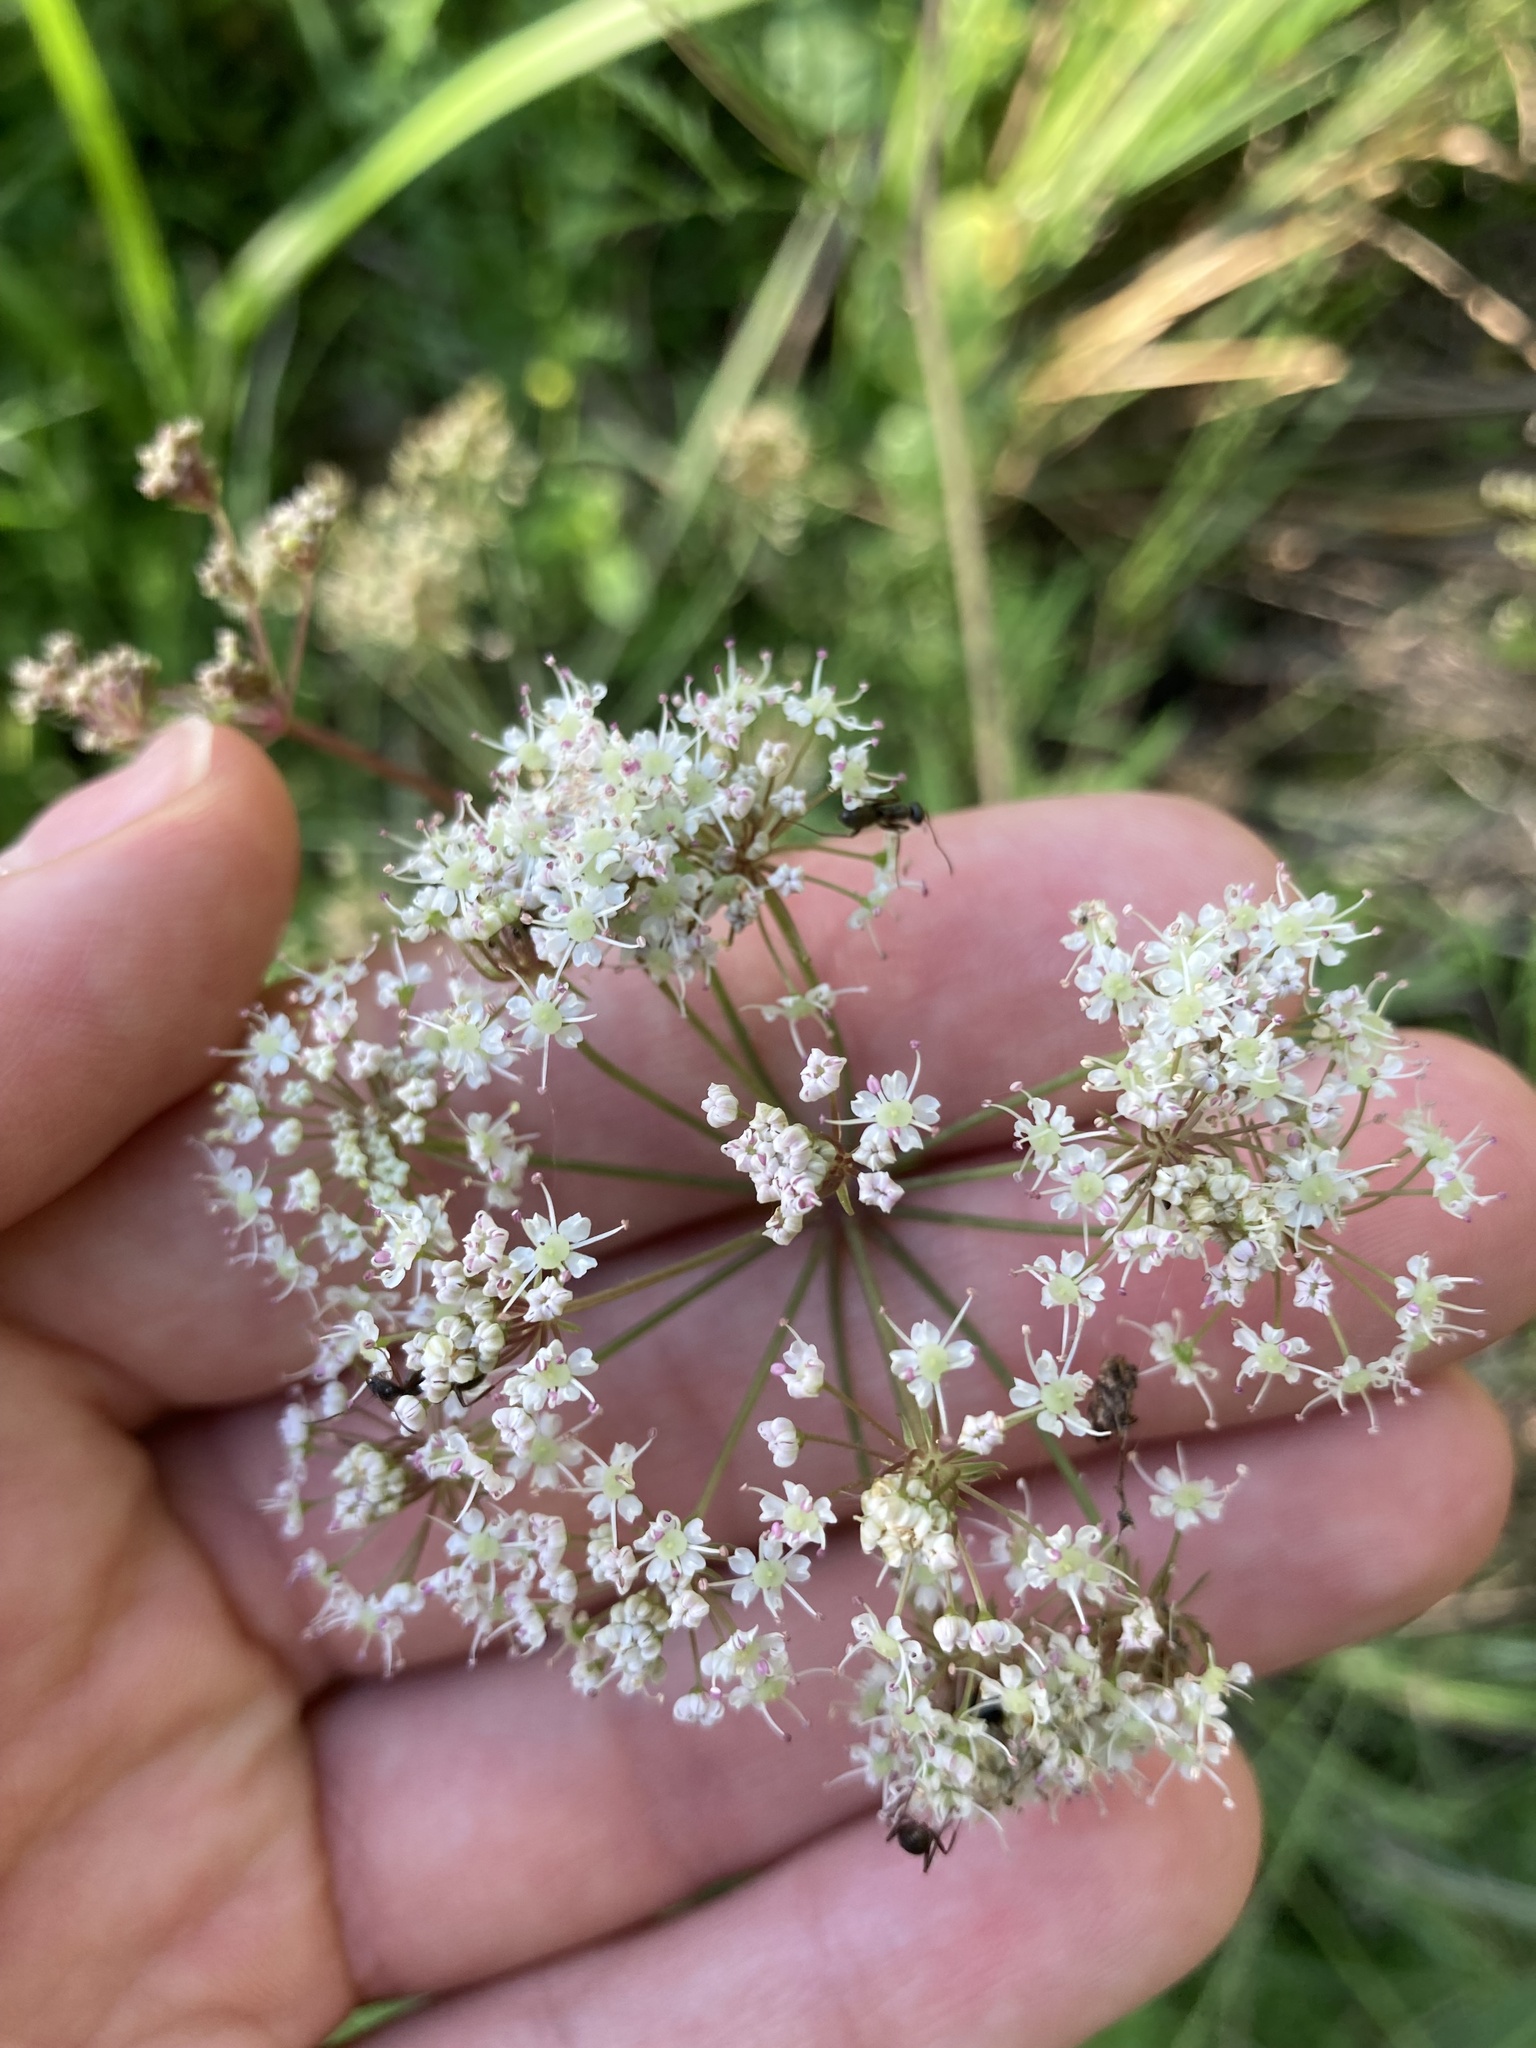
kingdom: Plantae
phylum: Tracheophyta
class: Magnoliopsida
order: Apiales
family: Apiaceae
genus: Cicuta
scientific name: Cicuta virosa
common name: Cowbane
